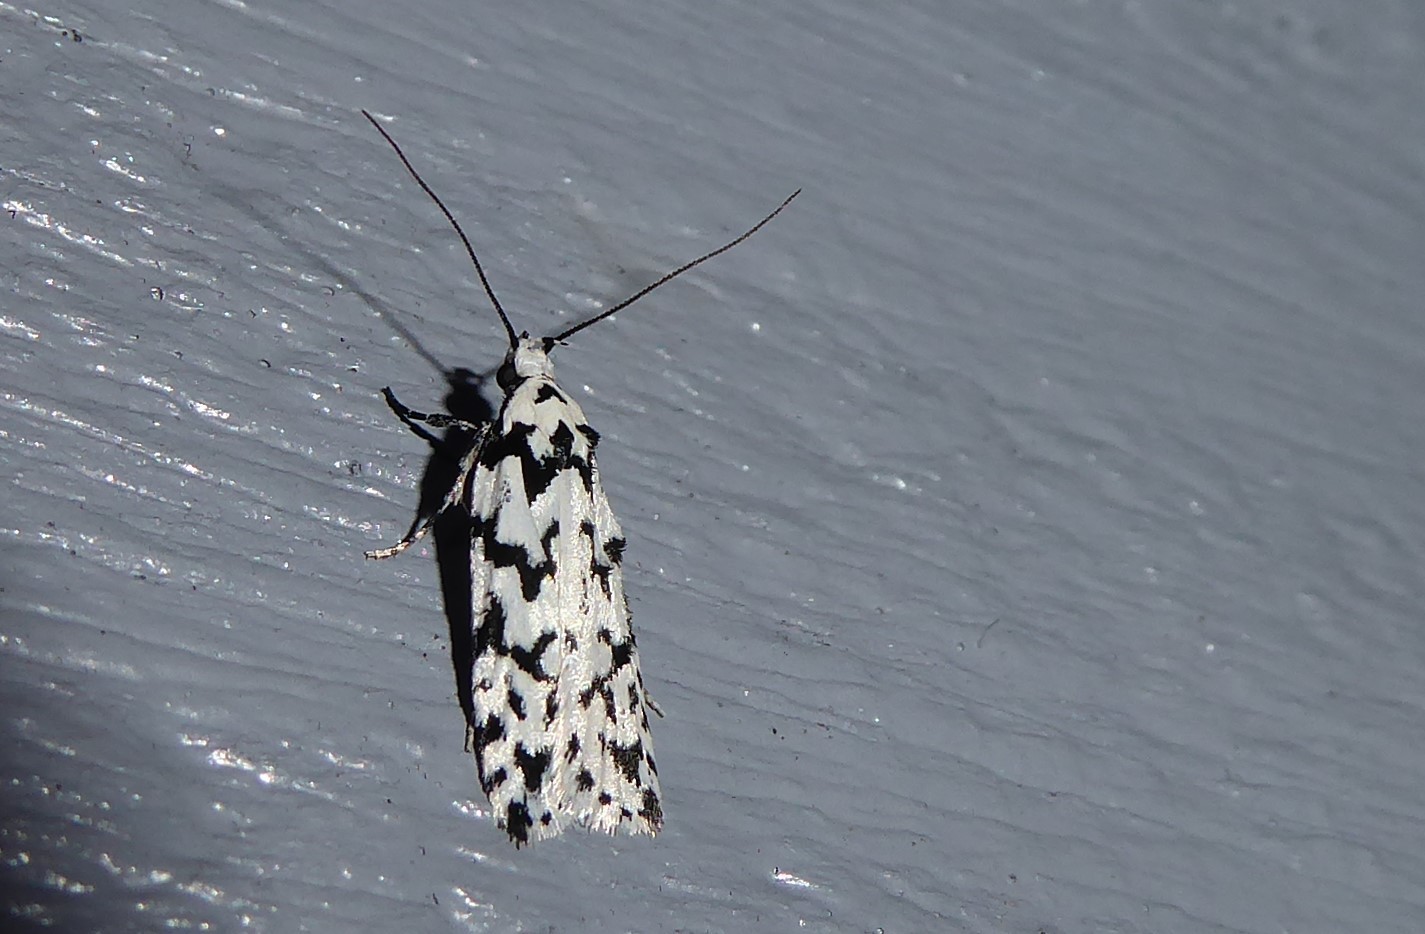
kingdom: Animalia
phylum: Arthropoda
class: Insecta
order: Lepidoptera
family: Oecophoridae
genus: Izatha
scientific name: Izatha katadiktya
